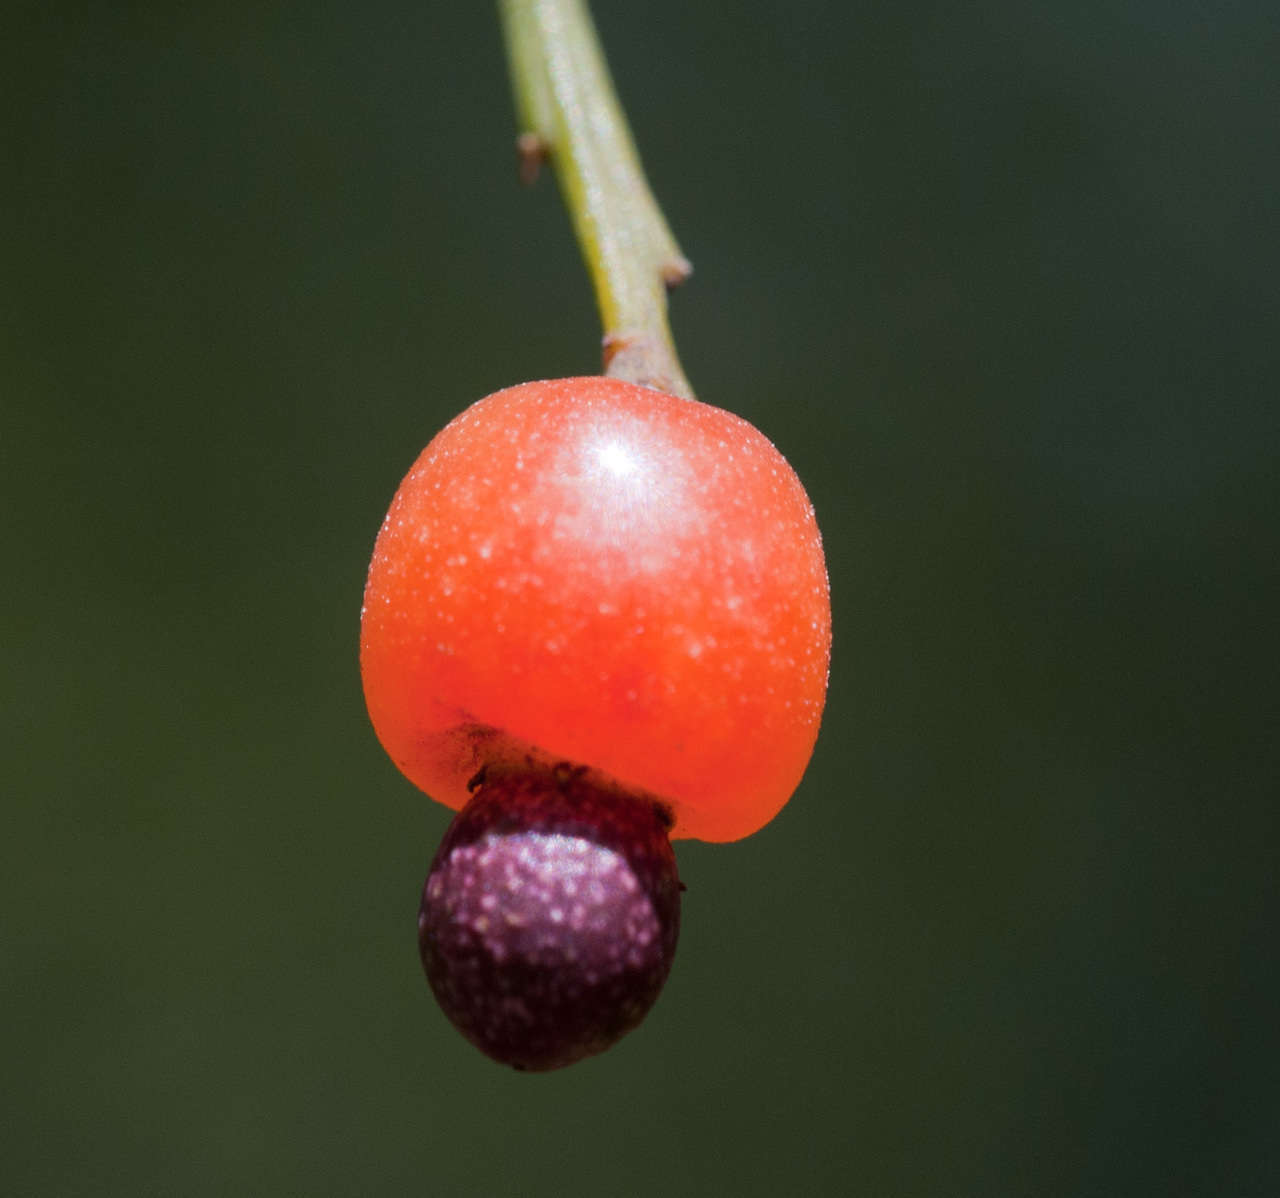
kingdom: Plantae
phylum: Tracheophyta
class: Magnoliopsida
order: Santalales
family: Santalaceae
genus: Exocarpos
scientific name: Exocarpos cupressiformis
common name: Cherry ballart
